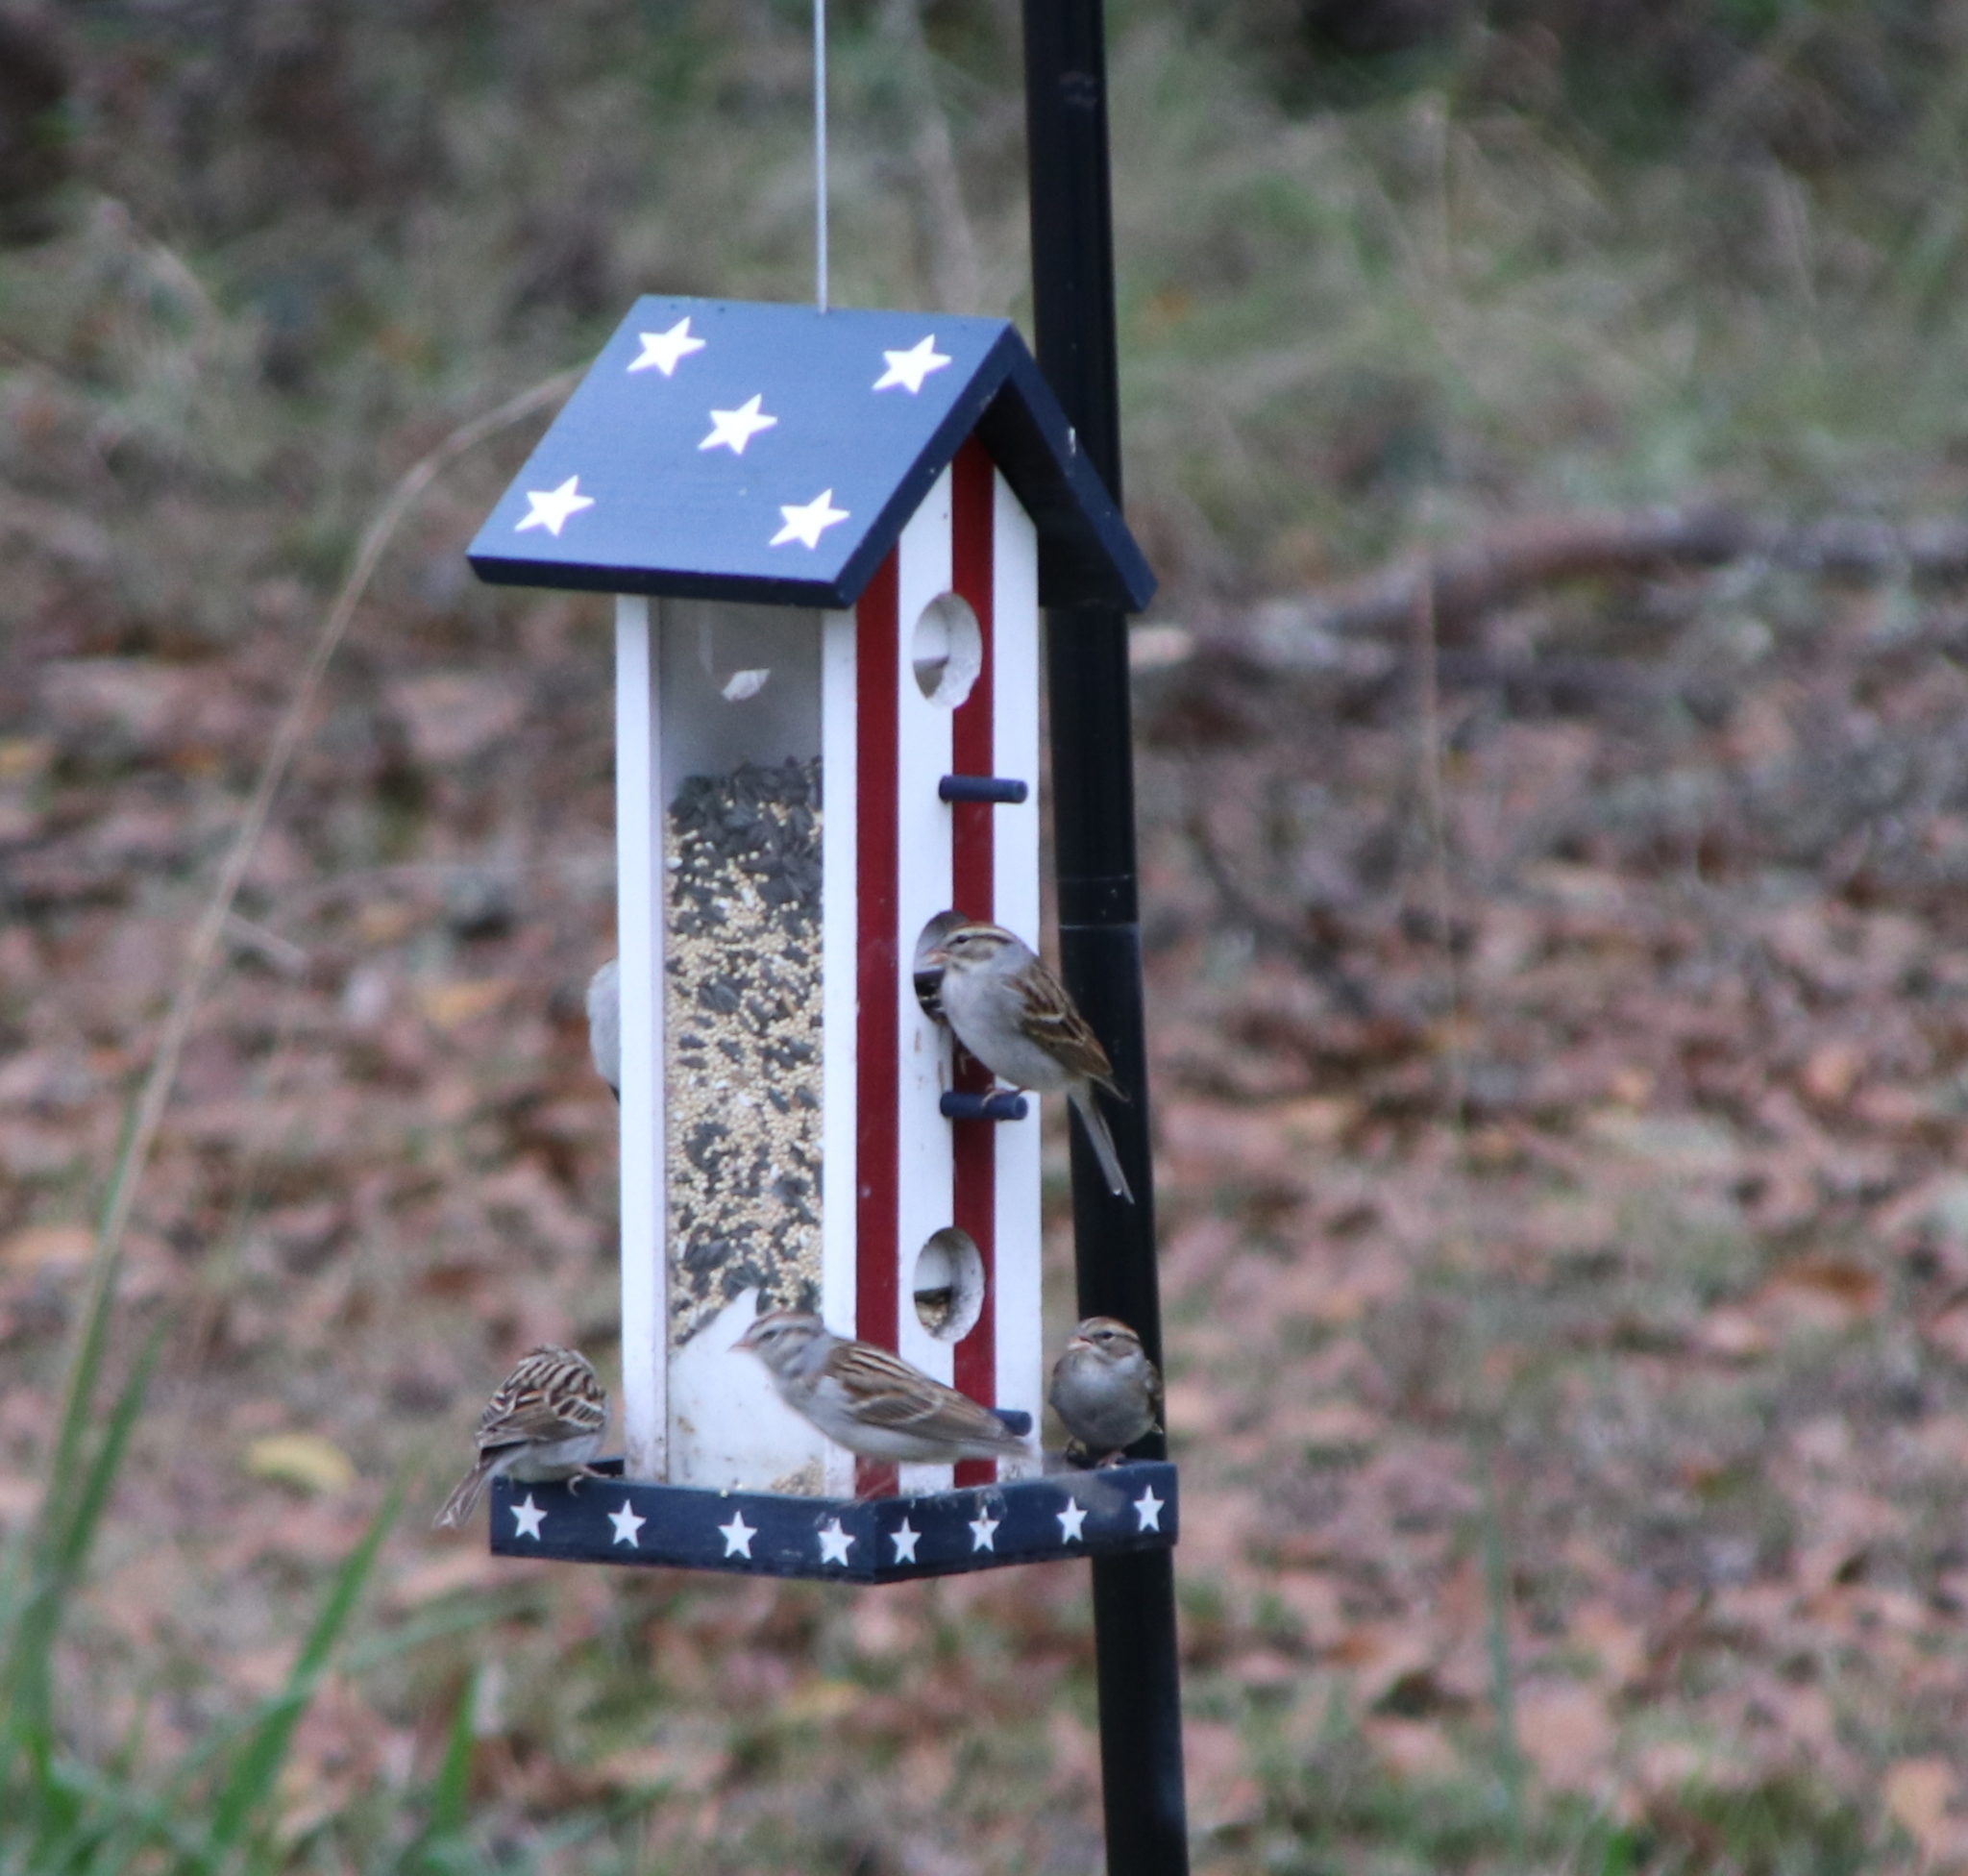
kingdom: Animalia
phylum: Chordata
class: Aves
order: Passeriformes
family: Passerellidae
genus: Spizella
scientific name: Spizella passerina
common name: Chipping sparrow
